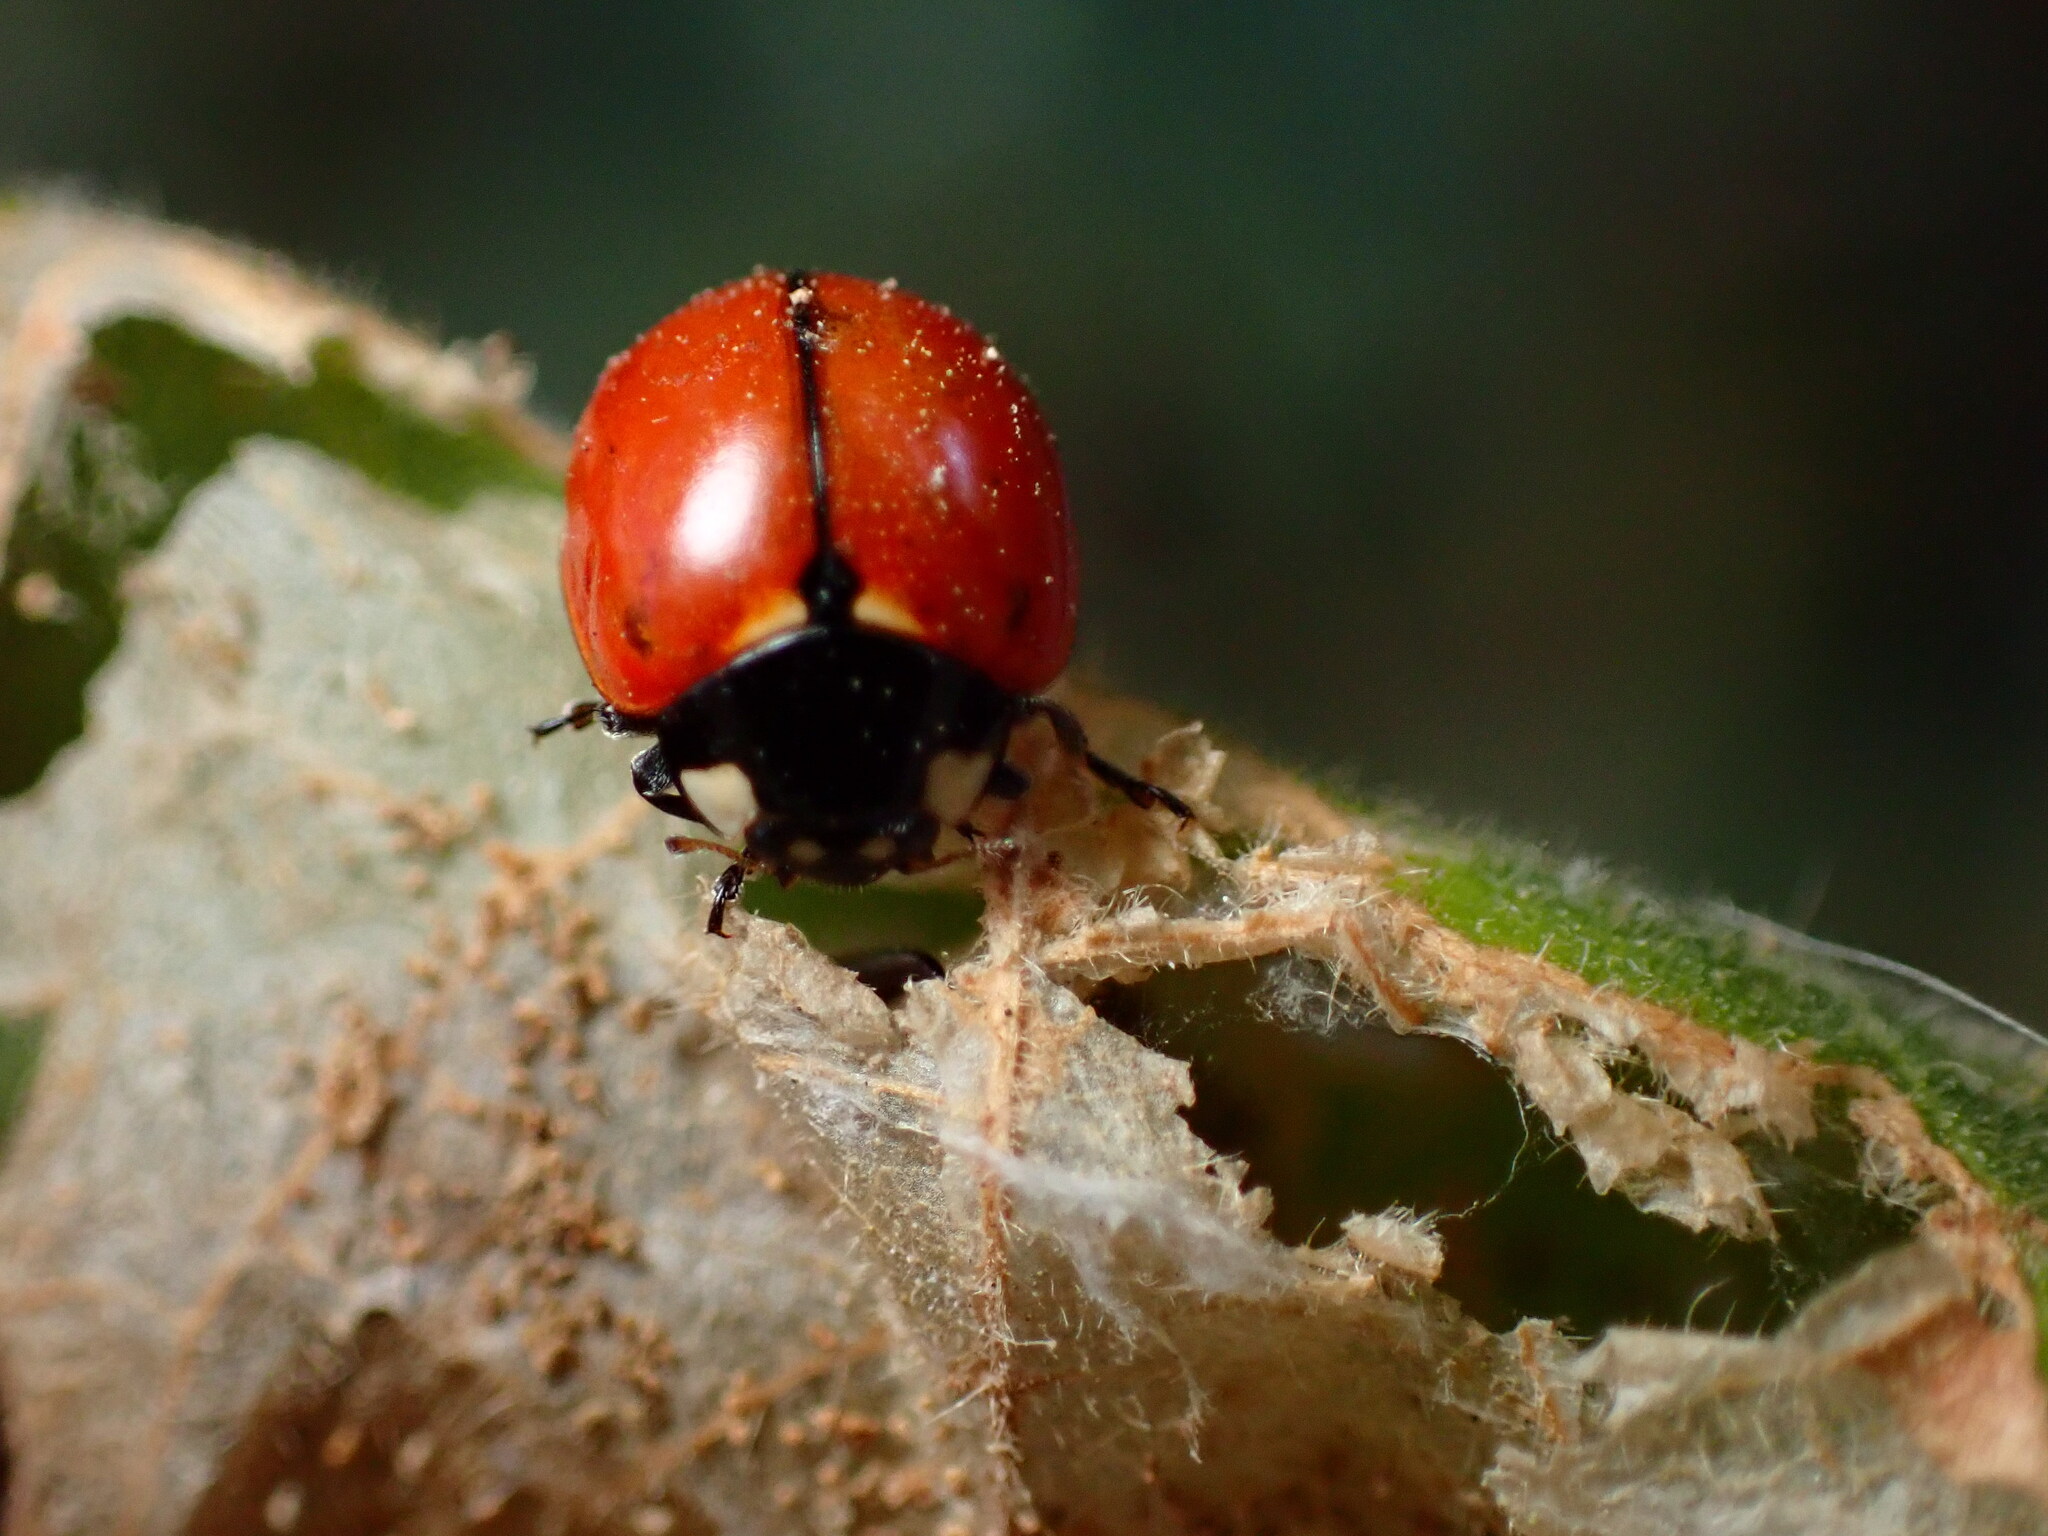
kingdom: Animalia
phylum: Arthropoda
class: Insecta
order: Coleoptera
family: Coccinellidae
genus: Coccinella
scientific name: Coccinella californica
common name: Lady beetle
